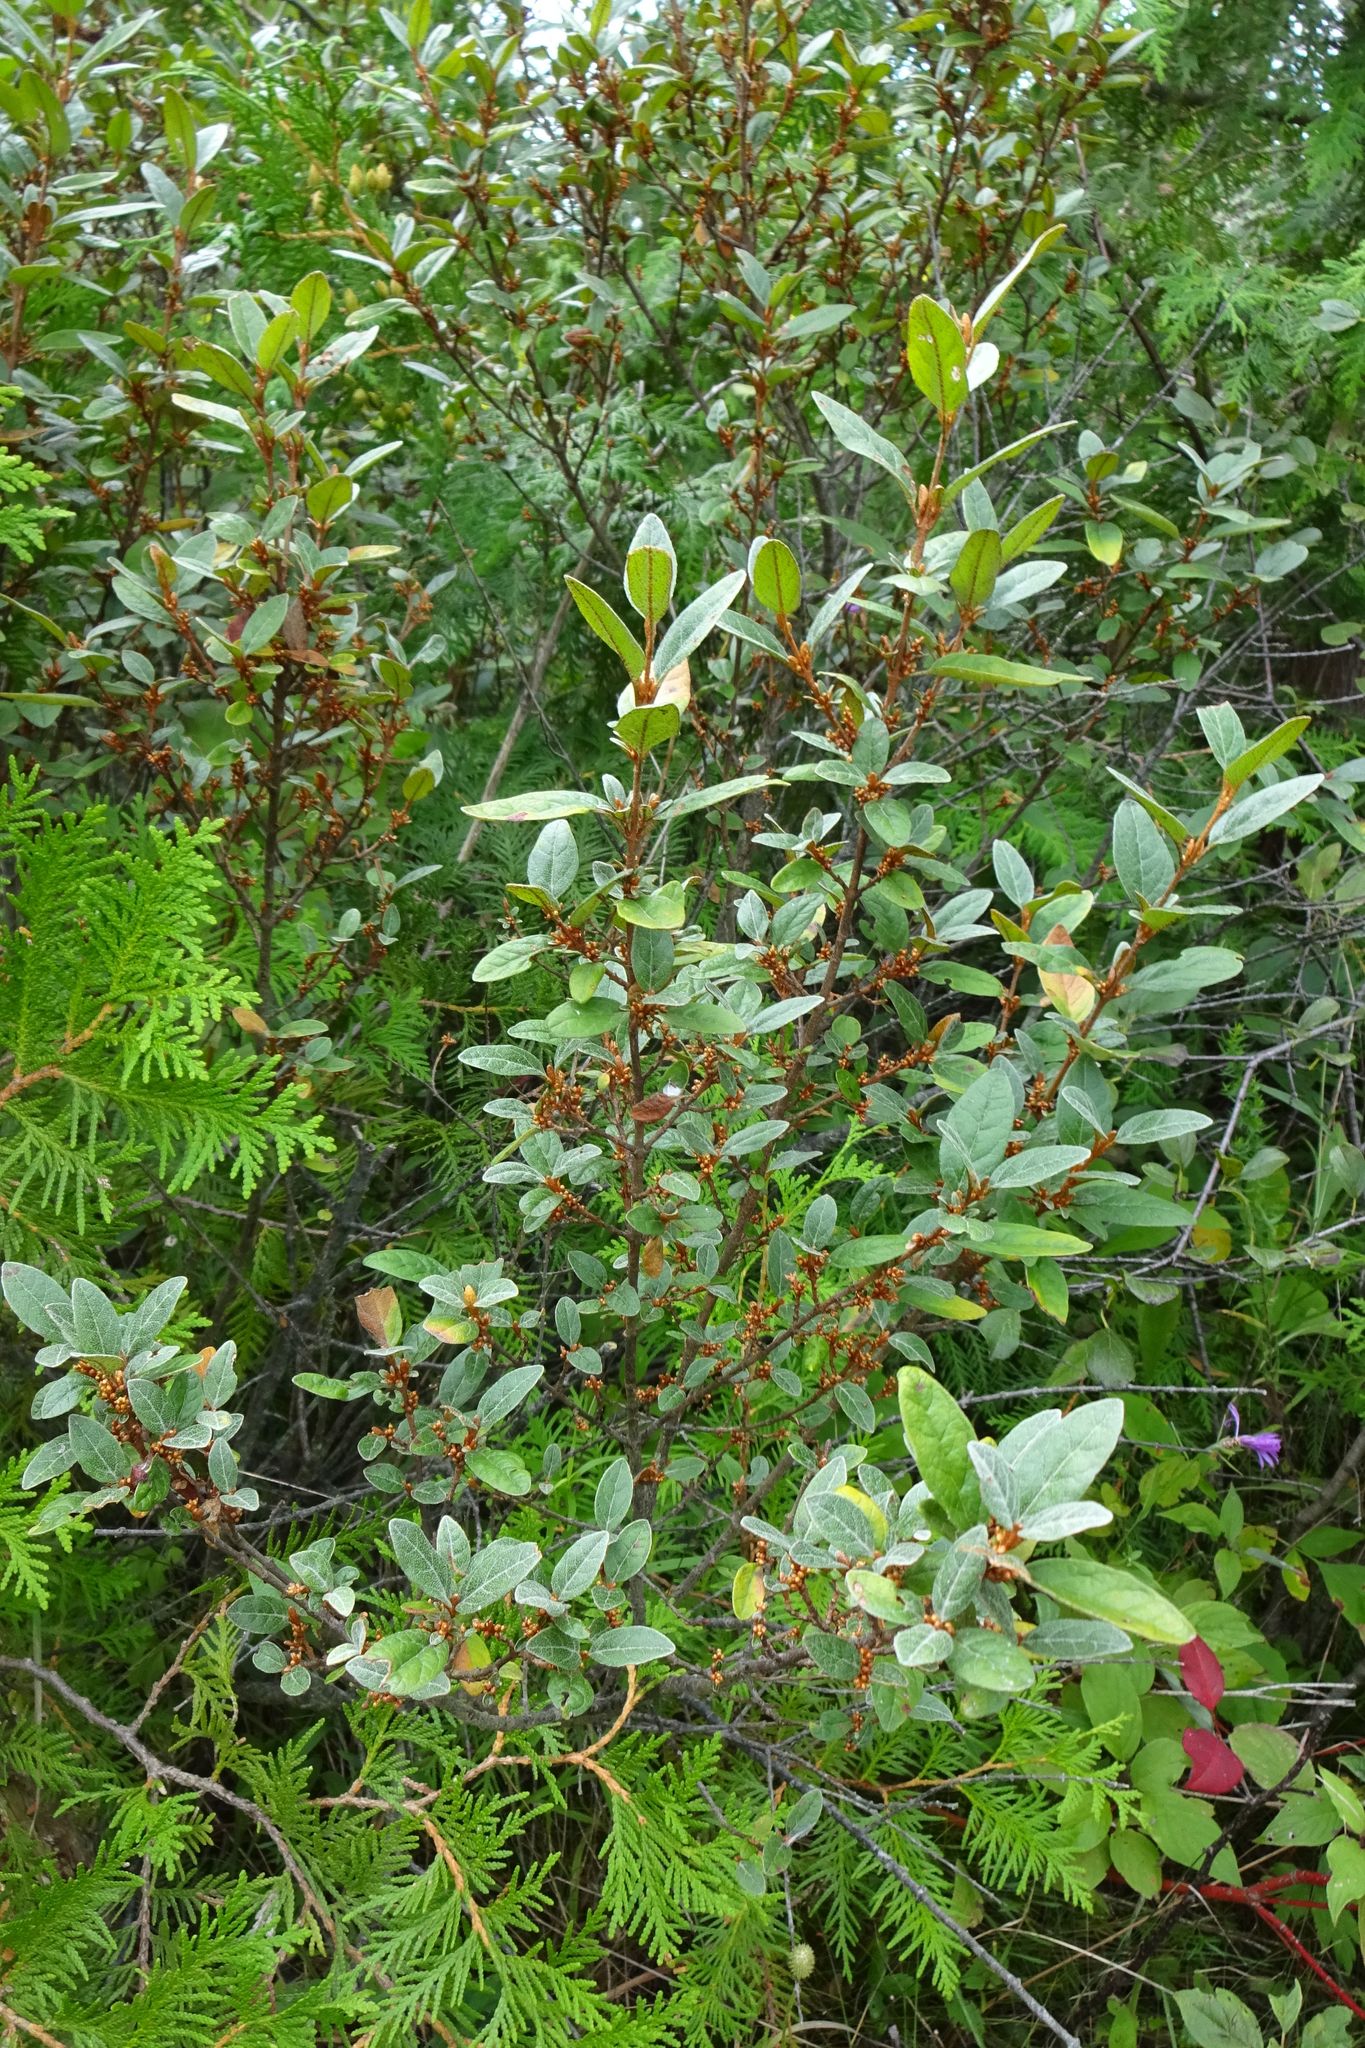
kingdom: Plantae
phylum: Tracheophyta
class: Magnoliopsida
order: Rosales
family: Elaeagnaceae
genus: Shepherdia
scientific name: Shepherdia canadensis
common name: Soapberry
